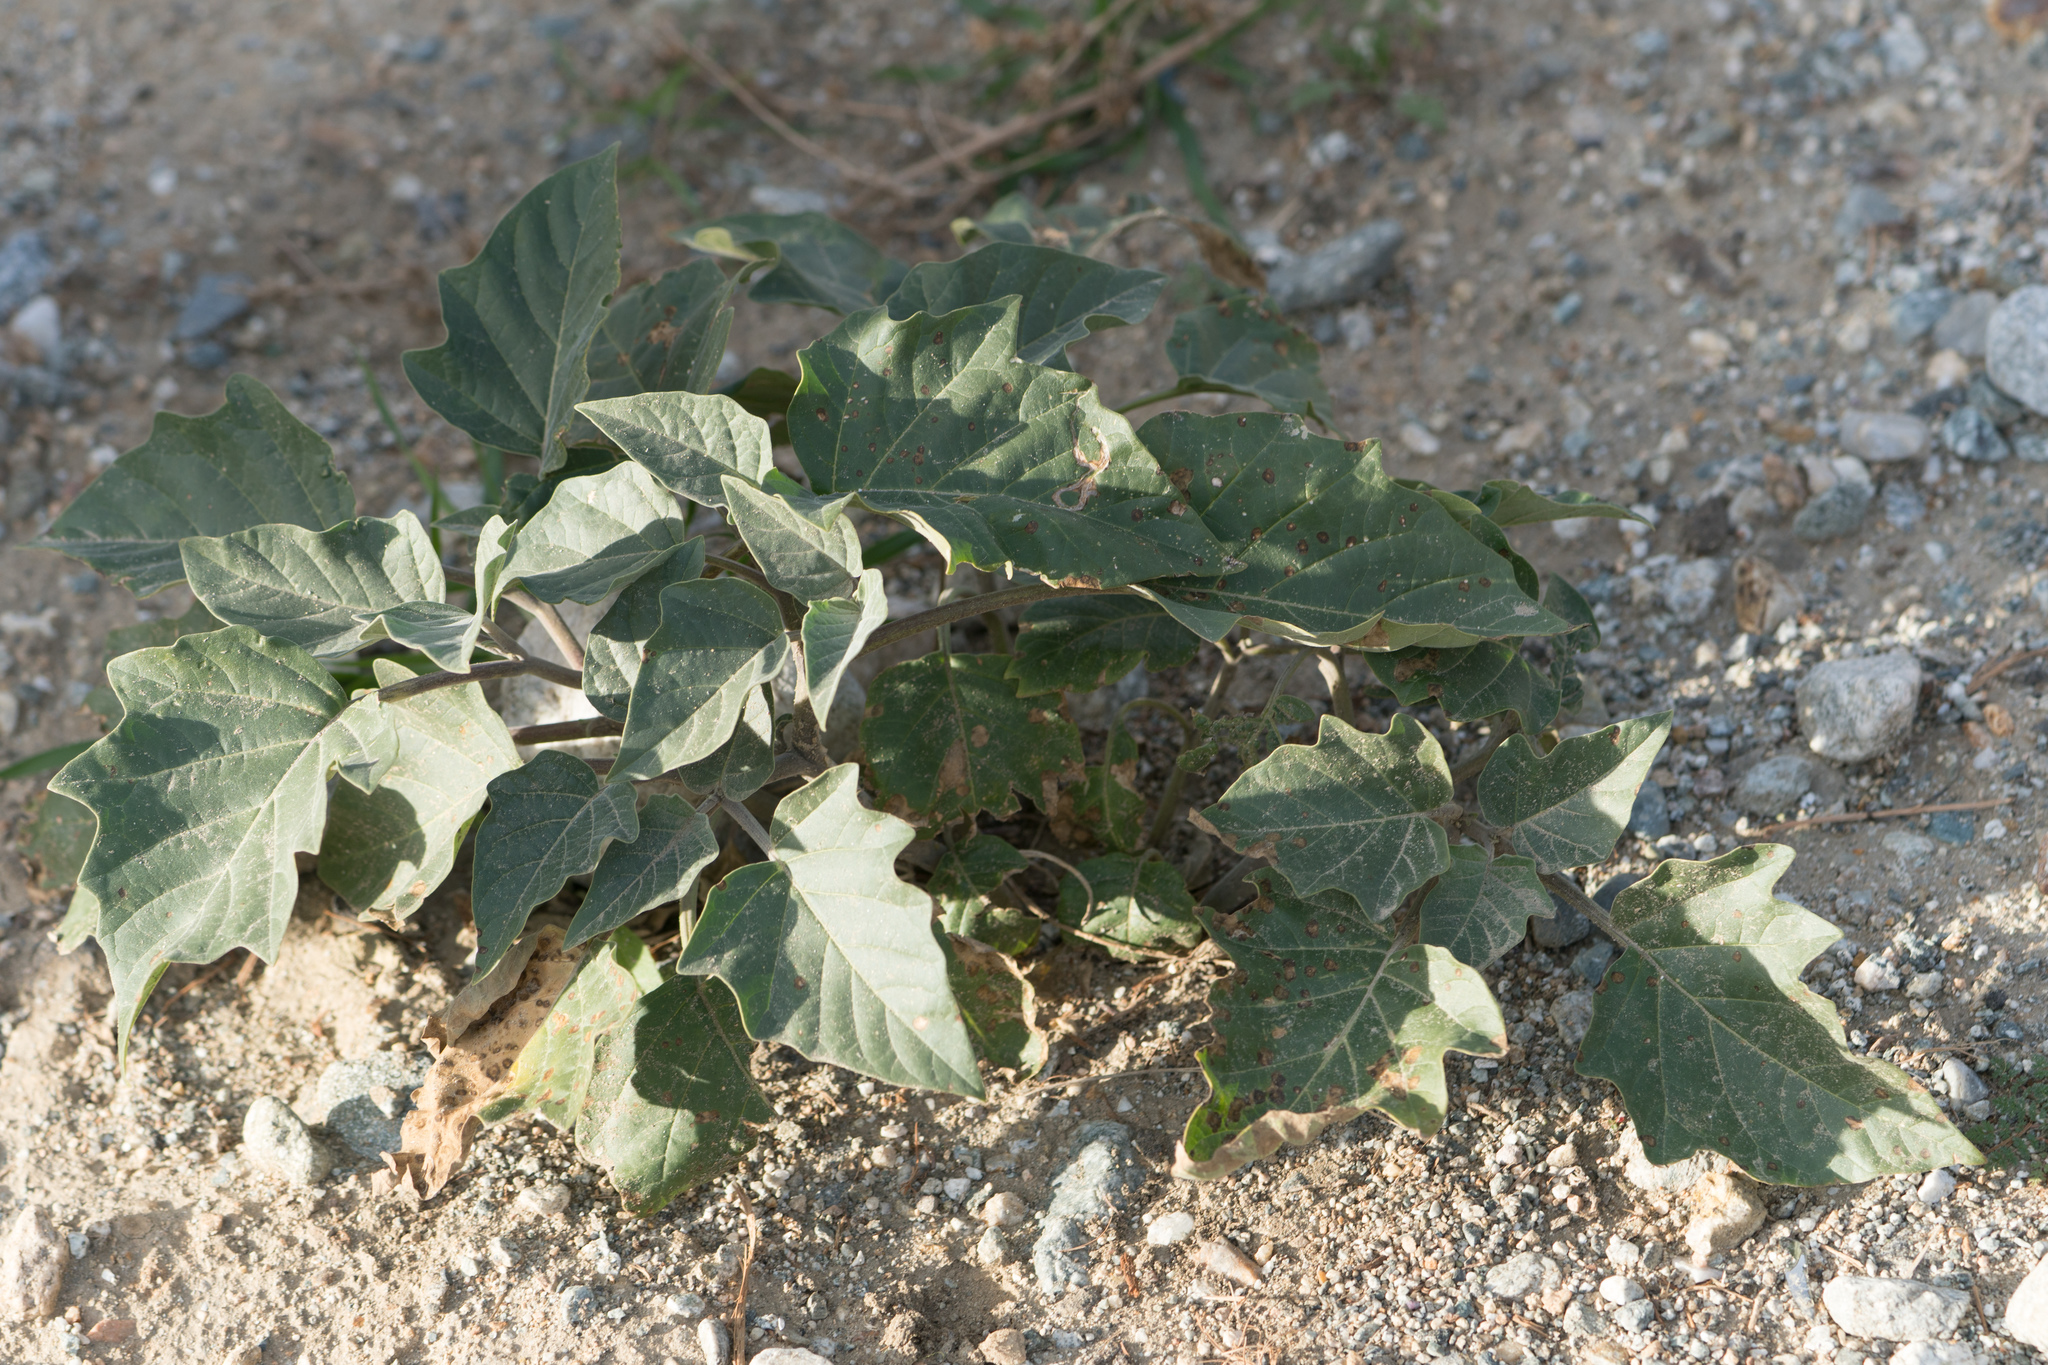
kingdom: Plantae
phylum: Tracheophyta
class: Magnoliopsida
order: Solanales
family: Solanaceae
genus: Datura
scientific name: Datura wrightii
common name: Sacred thorn-apple
